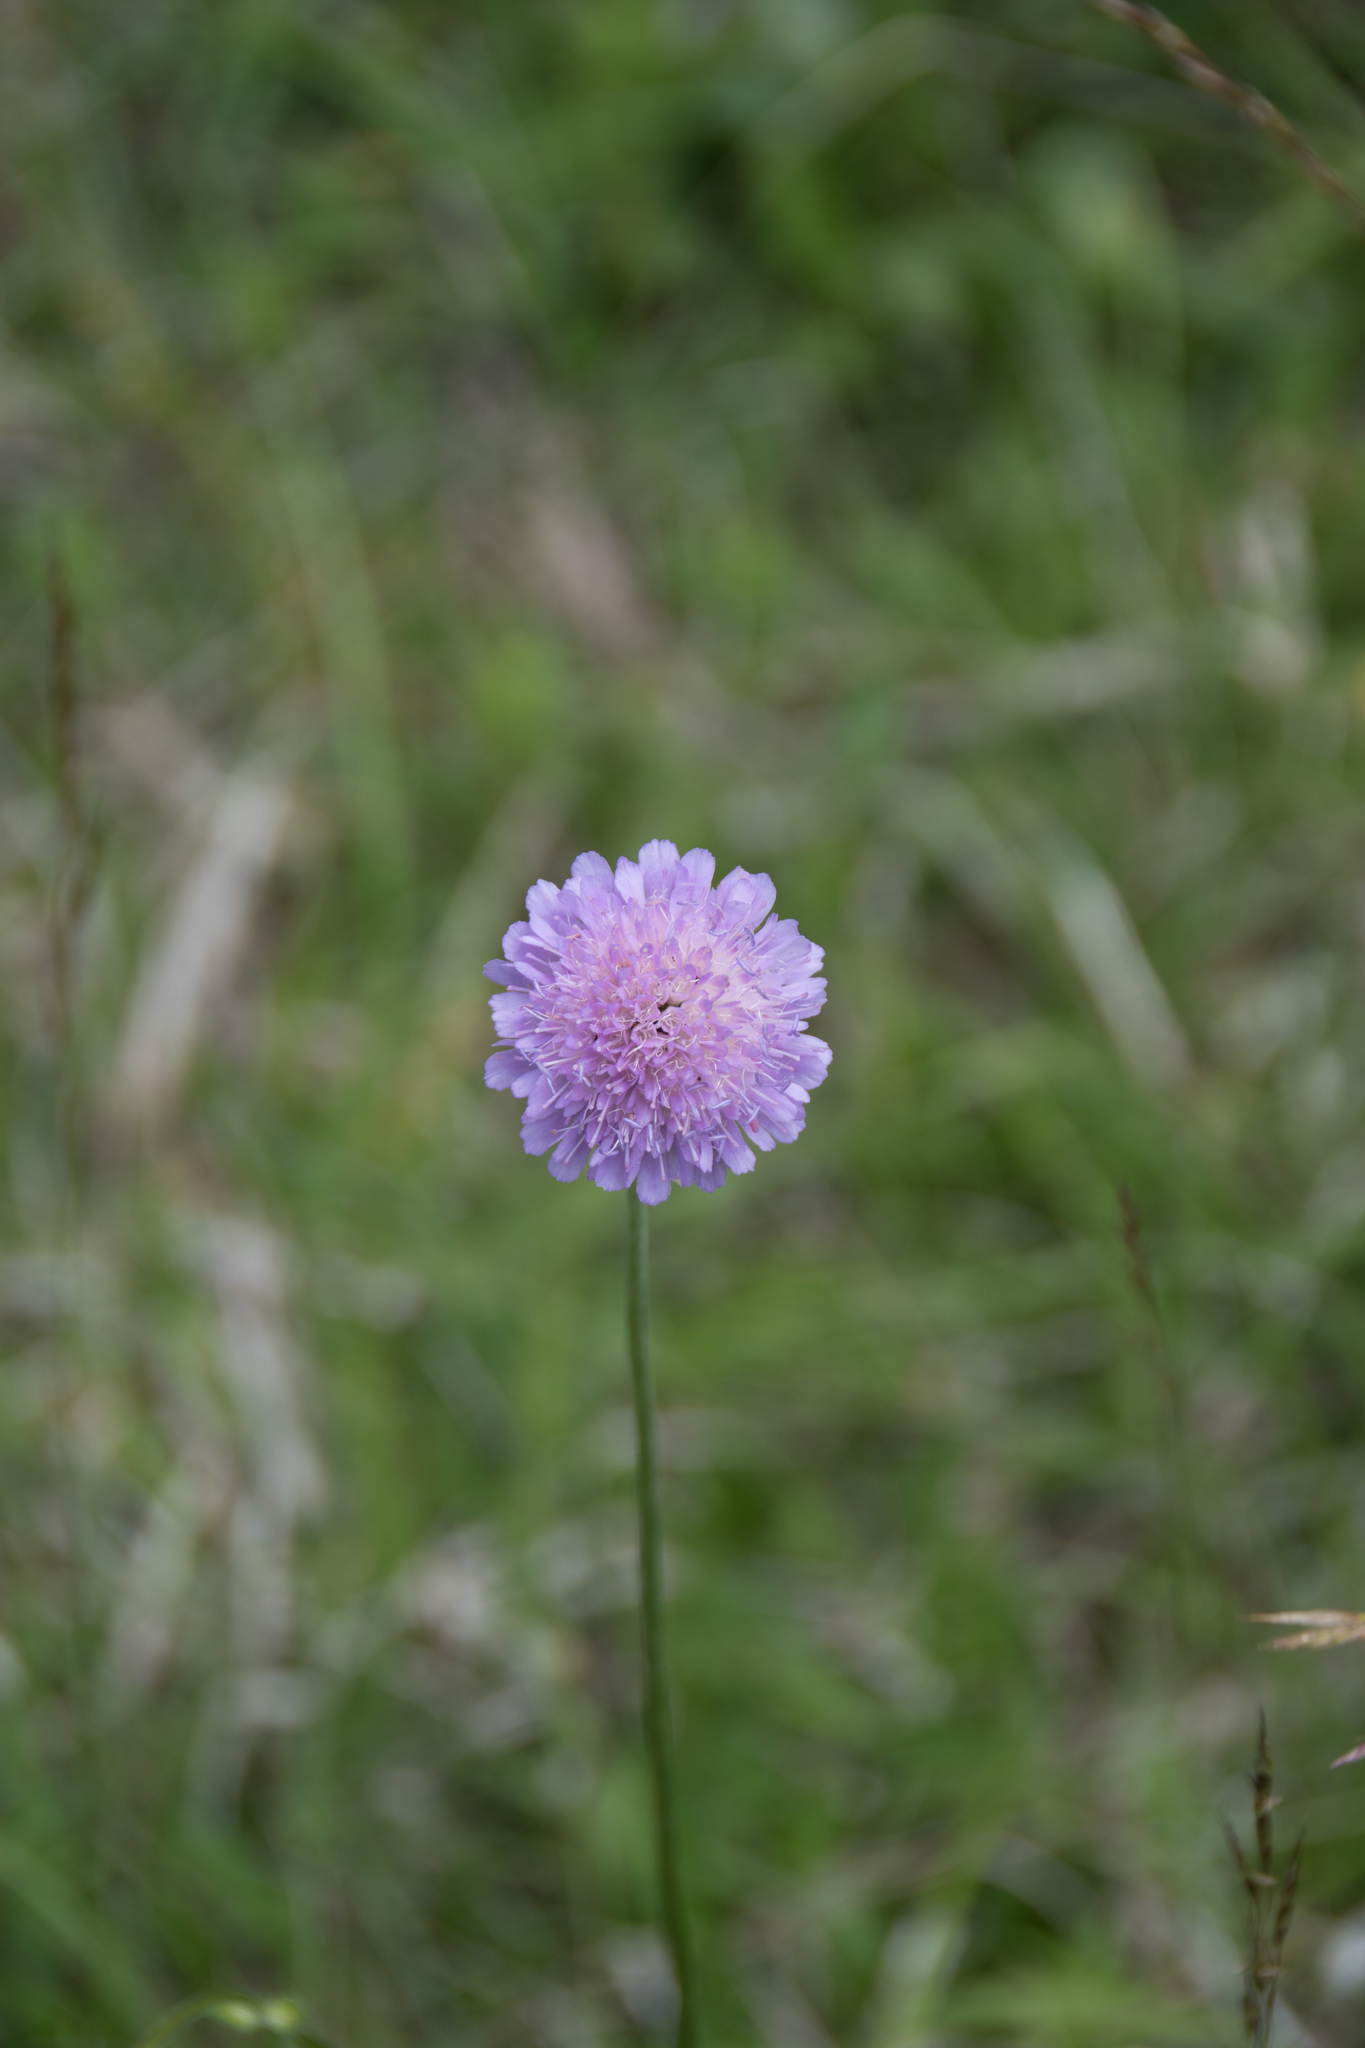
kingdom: Plantae
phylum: Tracheophyta
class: Magnoliopsida
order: Dipsacales
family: Caprifoliaceae
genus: Knautia
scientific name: Knautia arvensis
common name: Field scabiosa
